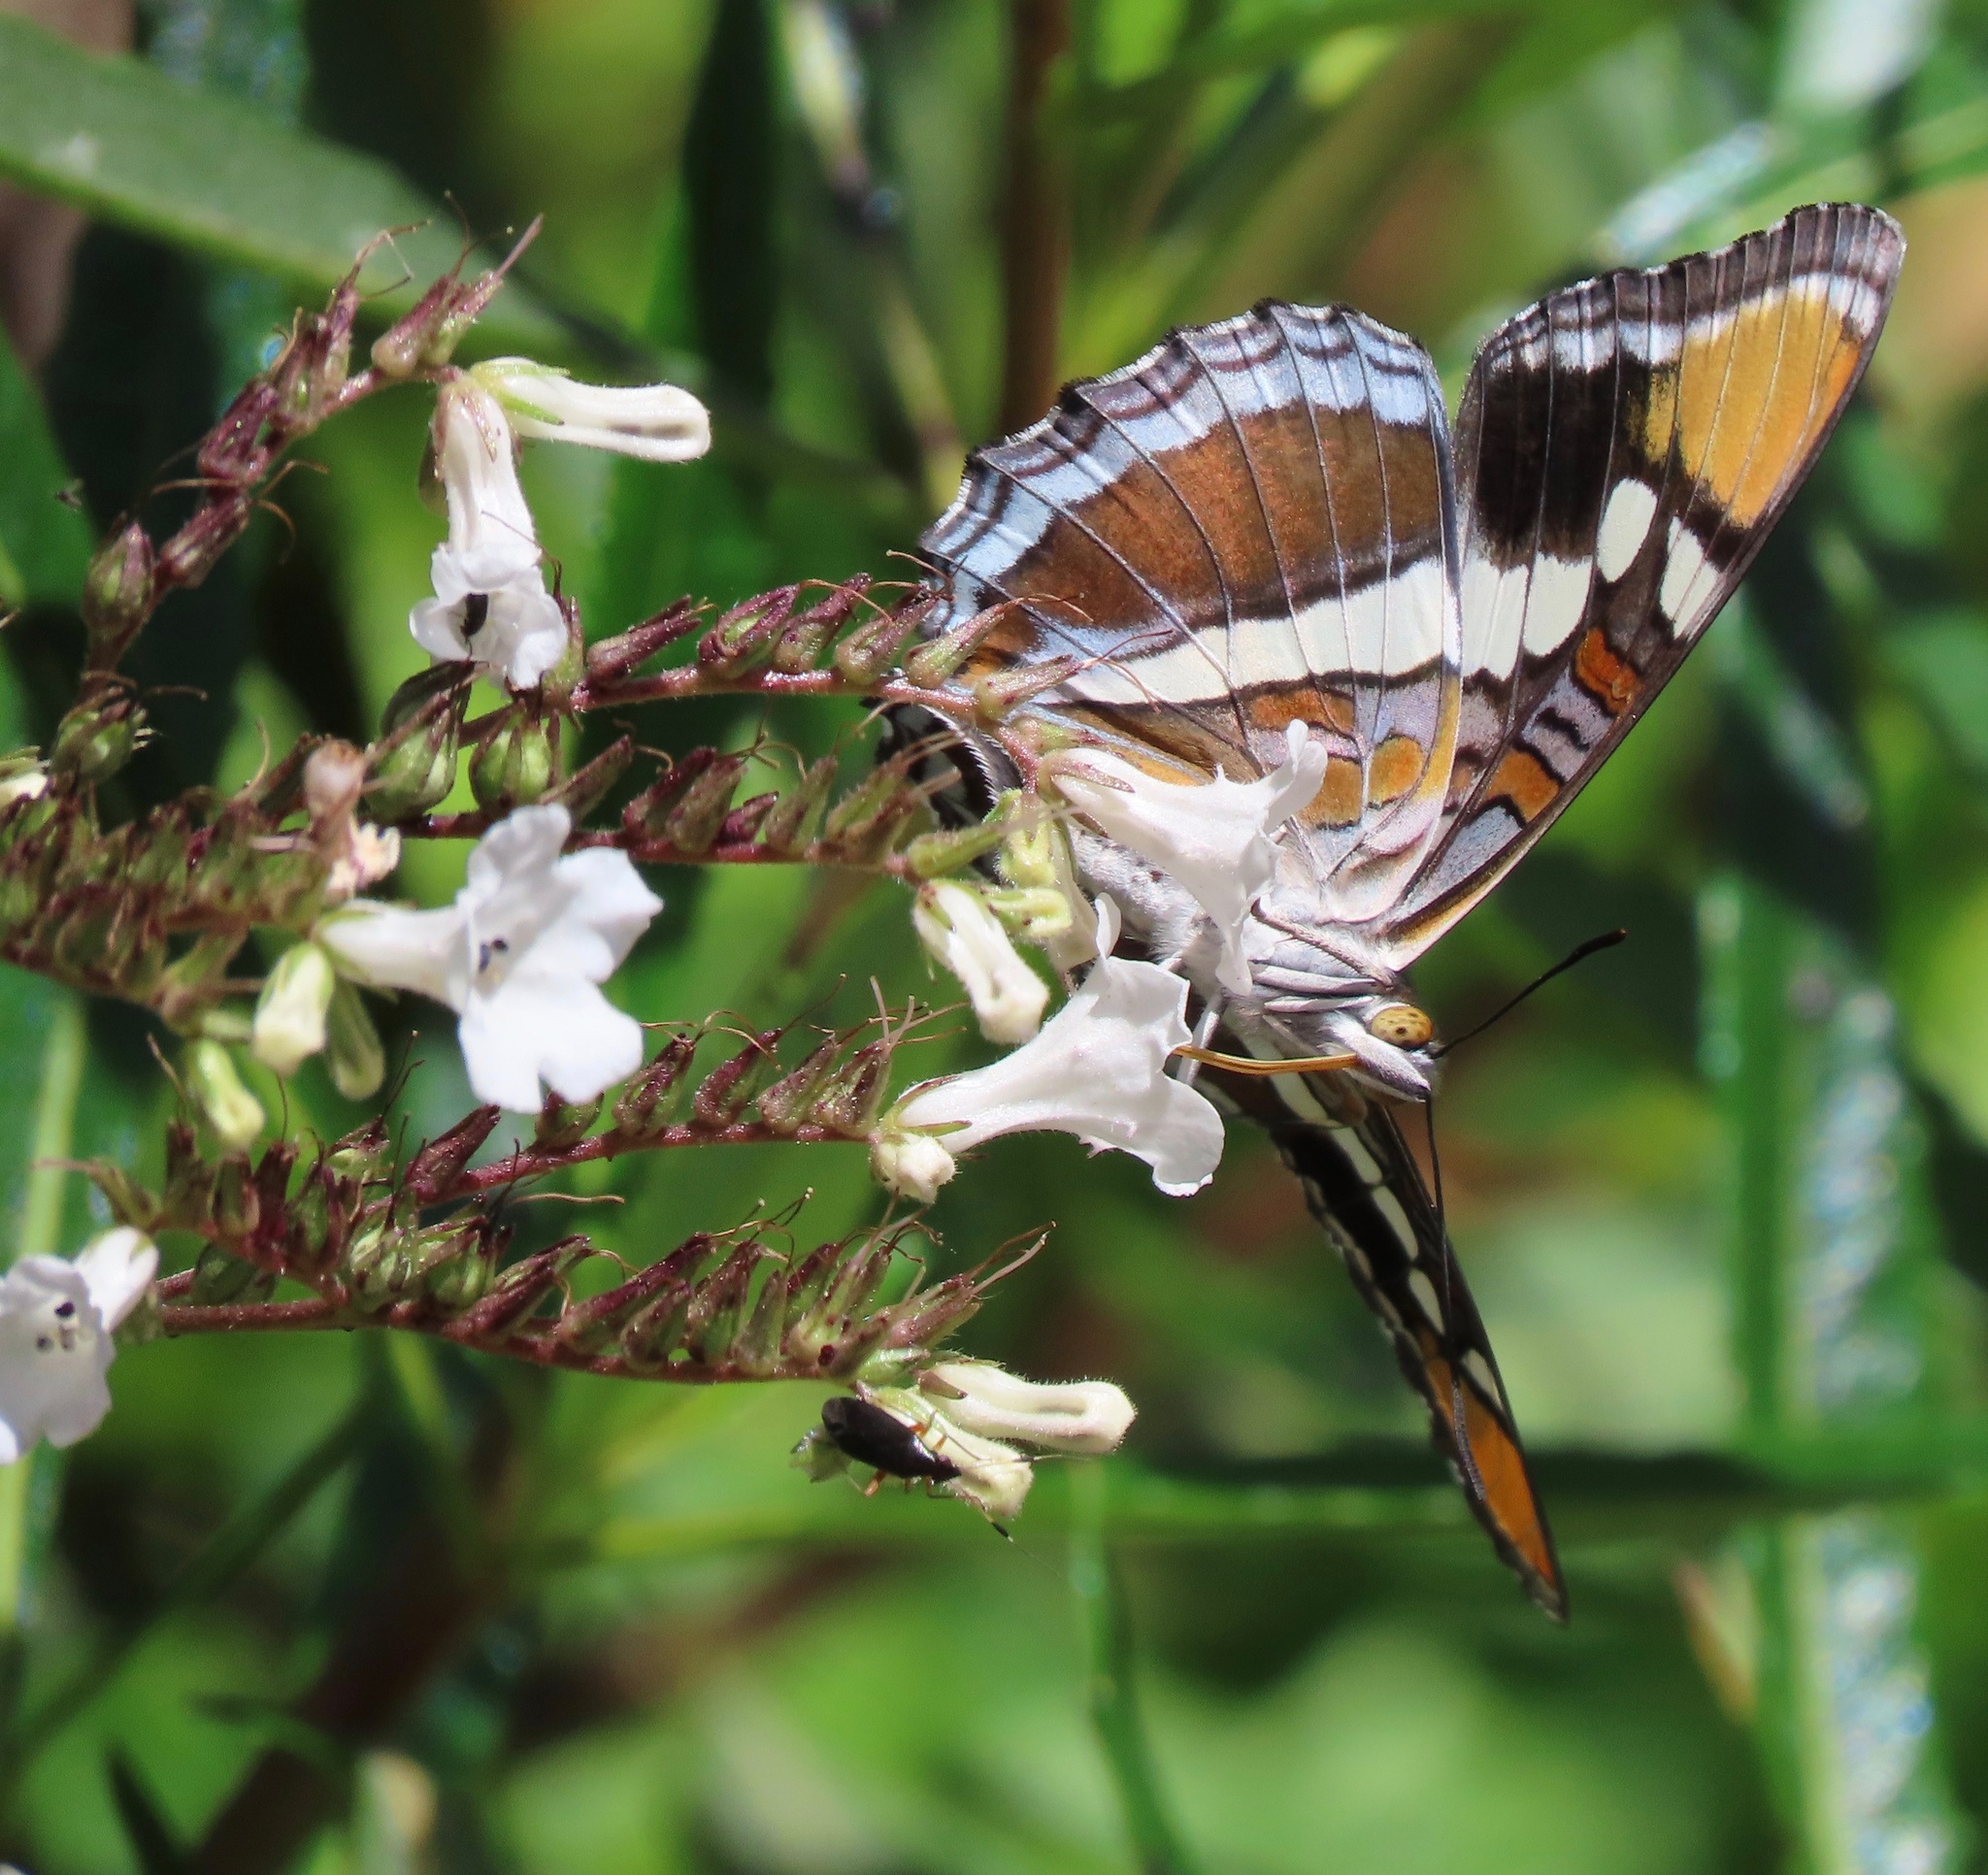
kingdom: Animalia
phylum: Arthropoda
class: Insecta
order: Lepidoptera
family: Nymphalidae
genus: Limenitis
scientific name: Limenitis bredowii
